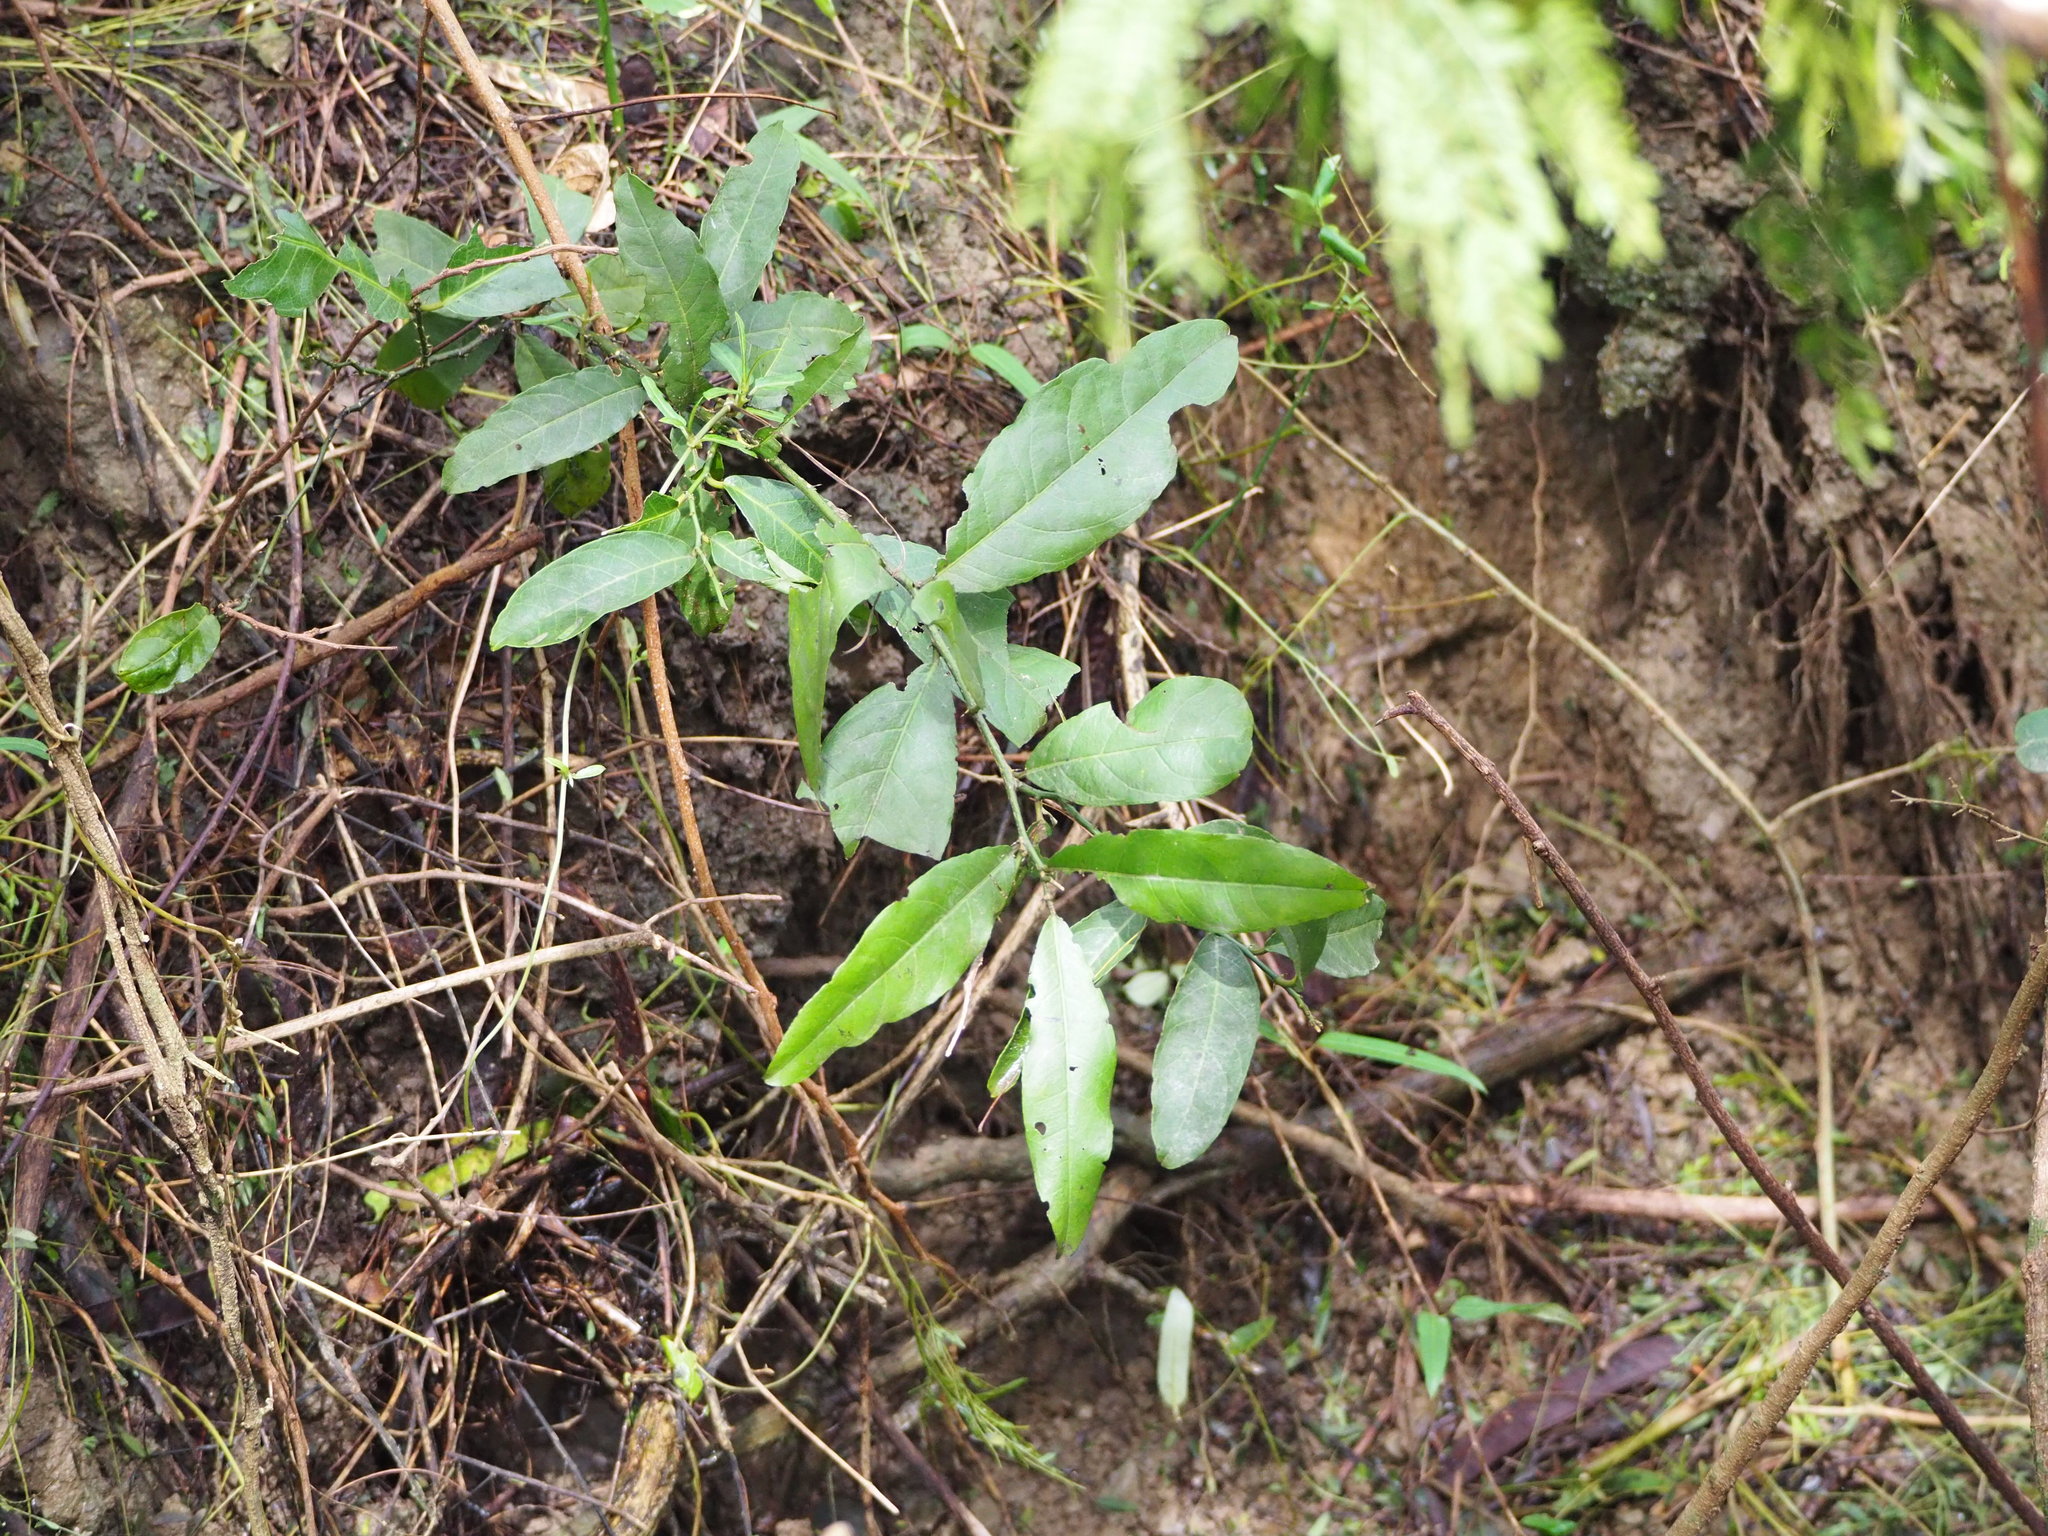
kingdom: Plantae
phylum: Tracheophyta
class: Magnoliopsida
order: Brassicales
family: Capparaceae
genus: Capparis
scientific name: Capparis henryi
